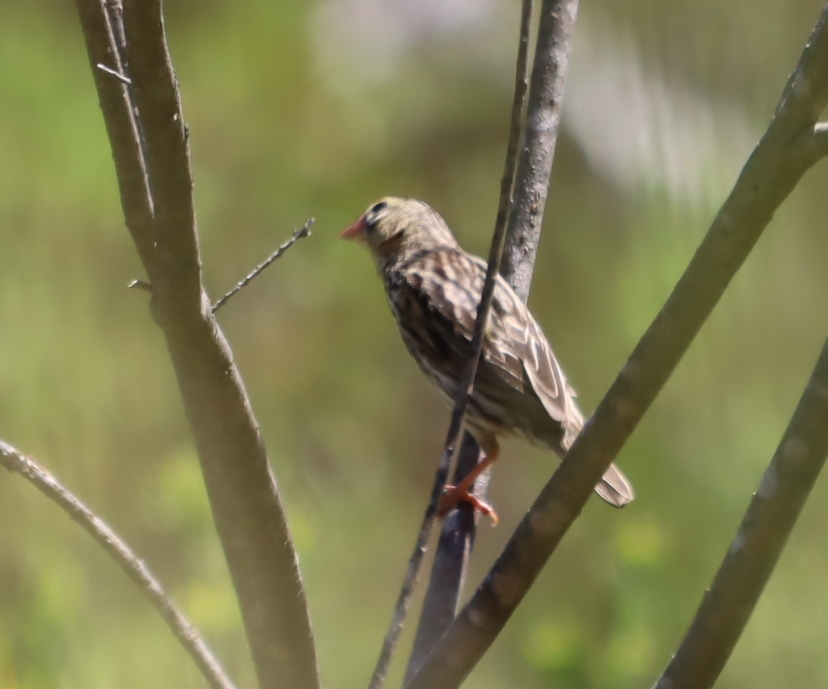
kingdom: Animalia
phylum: Chordata
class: Aves
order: Passeriformes
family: Ploceidae
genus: Euplectes
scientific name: Euplectes capensis
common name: Yellow bishop
